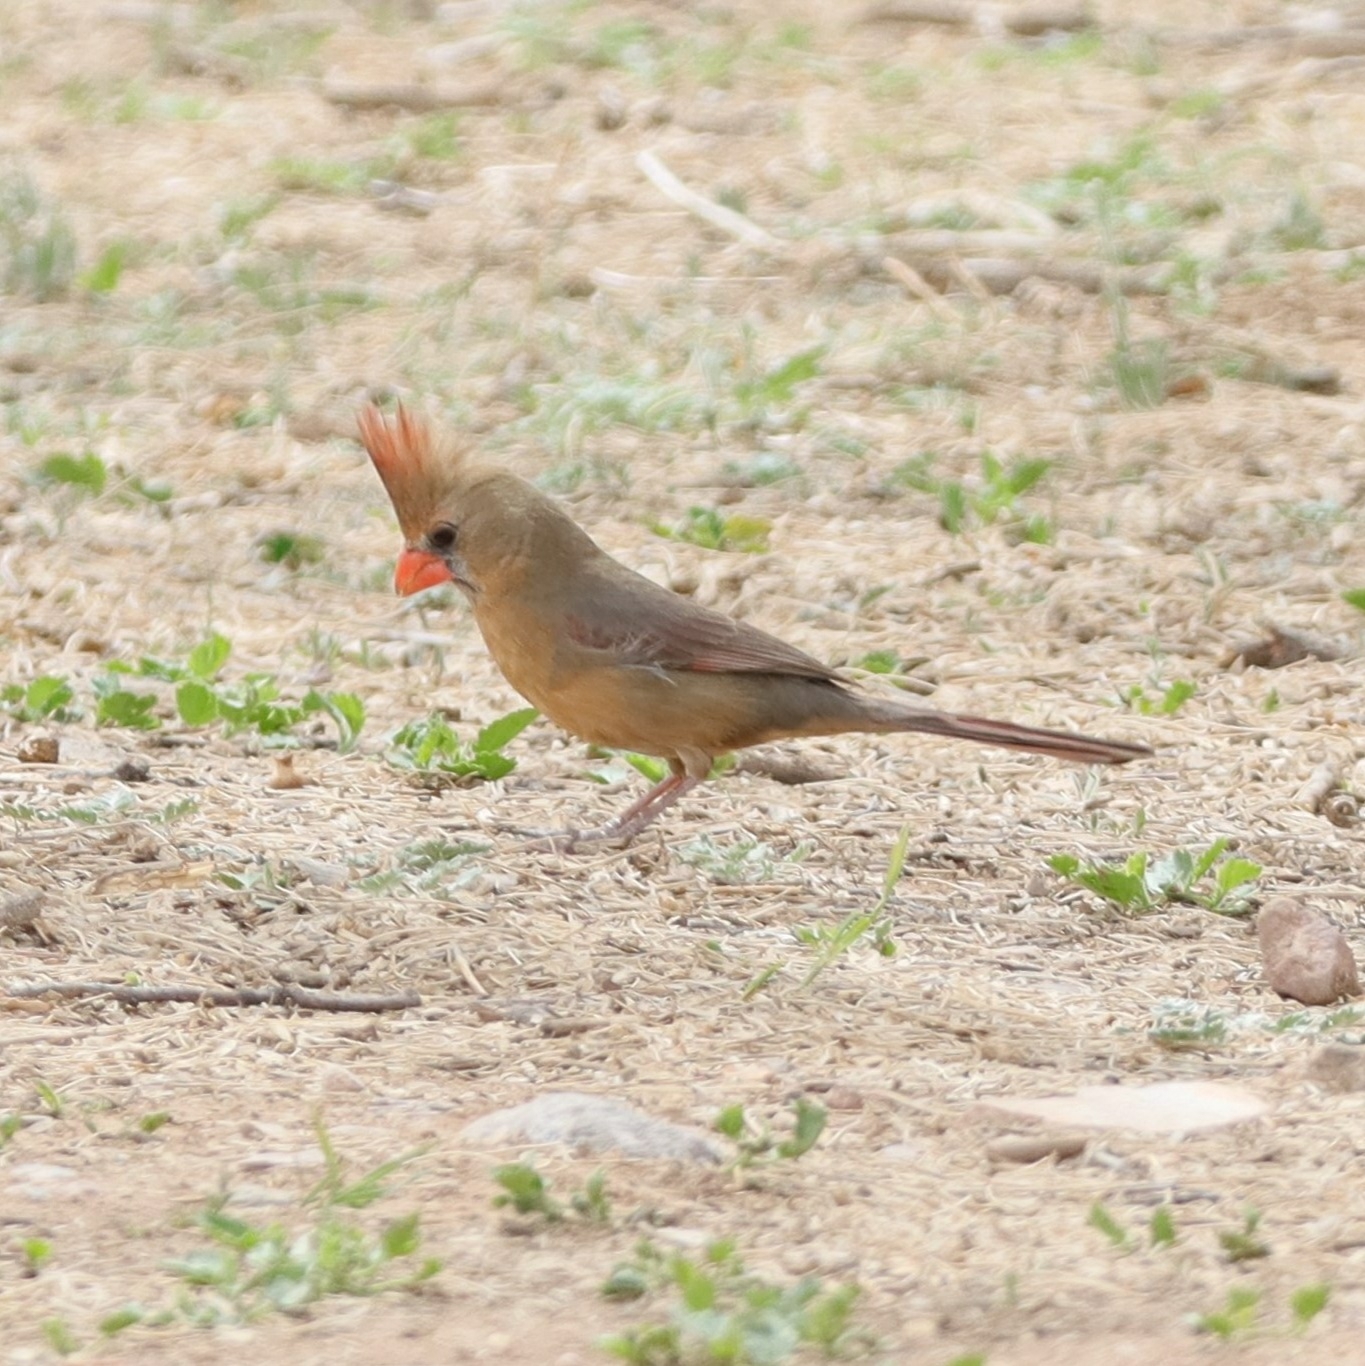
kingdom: Animalia
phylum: Chordata
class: Aves
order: Passeriformes
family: Cardinalidae
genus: Cardinalis
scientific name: Cardinalis cardinalis
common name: Northern cardinal
